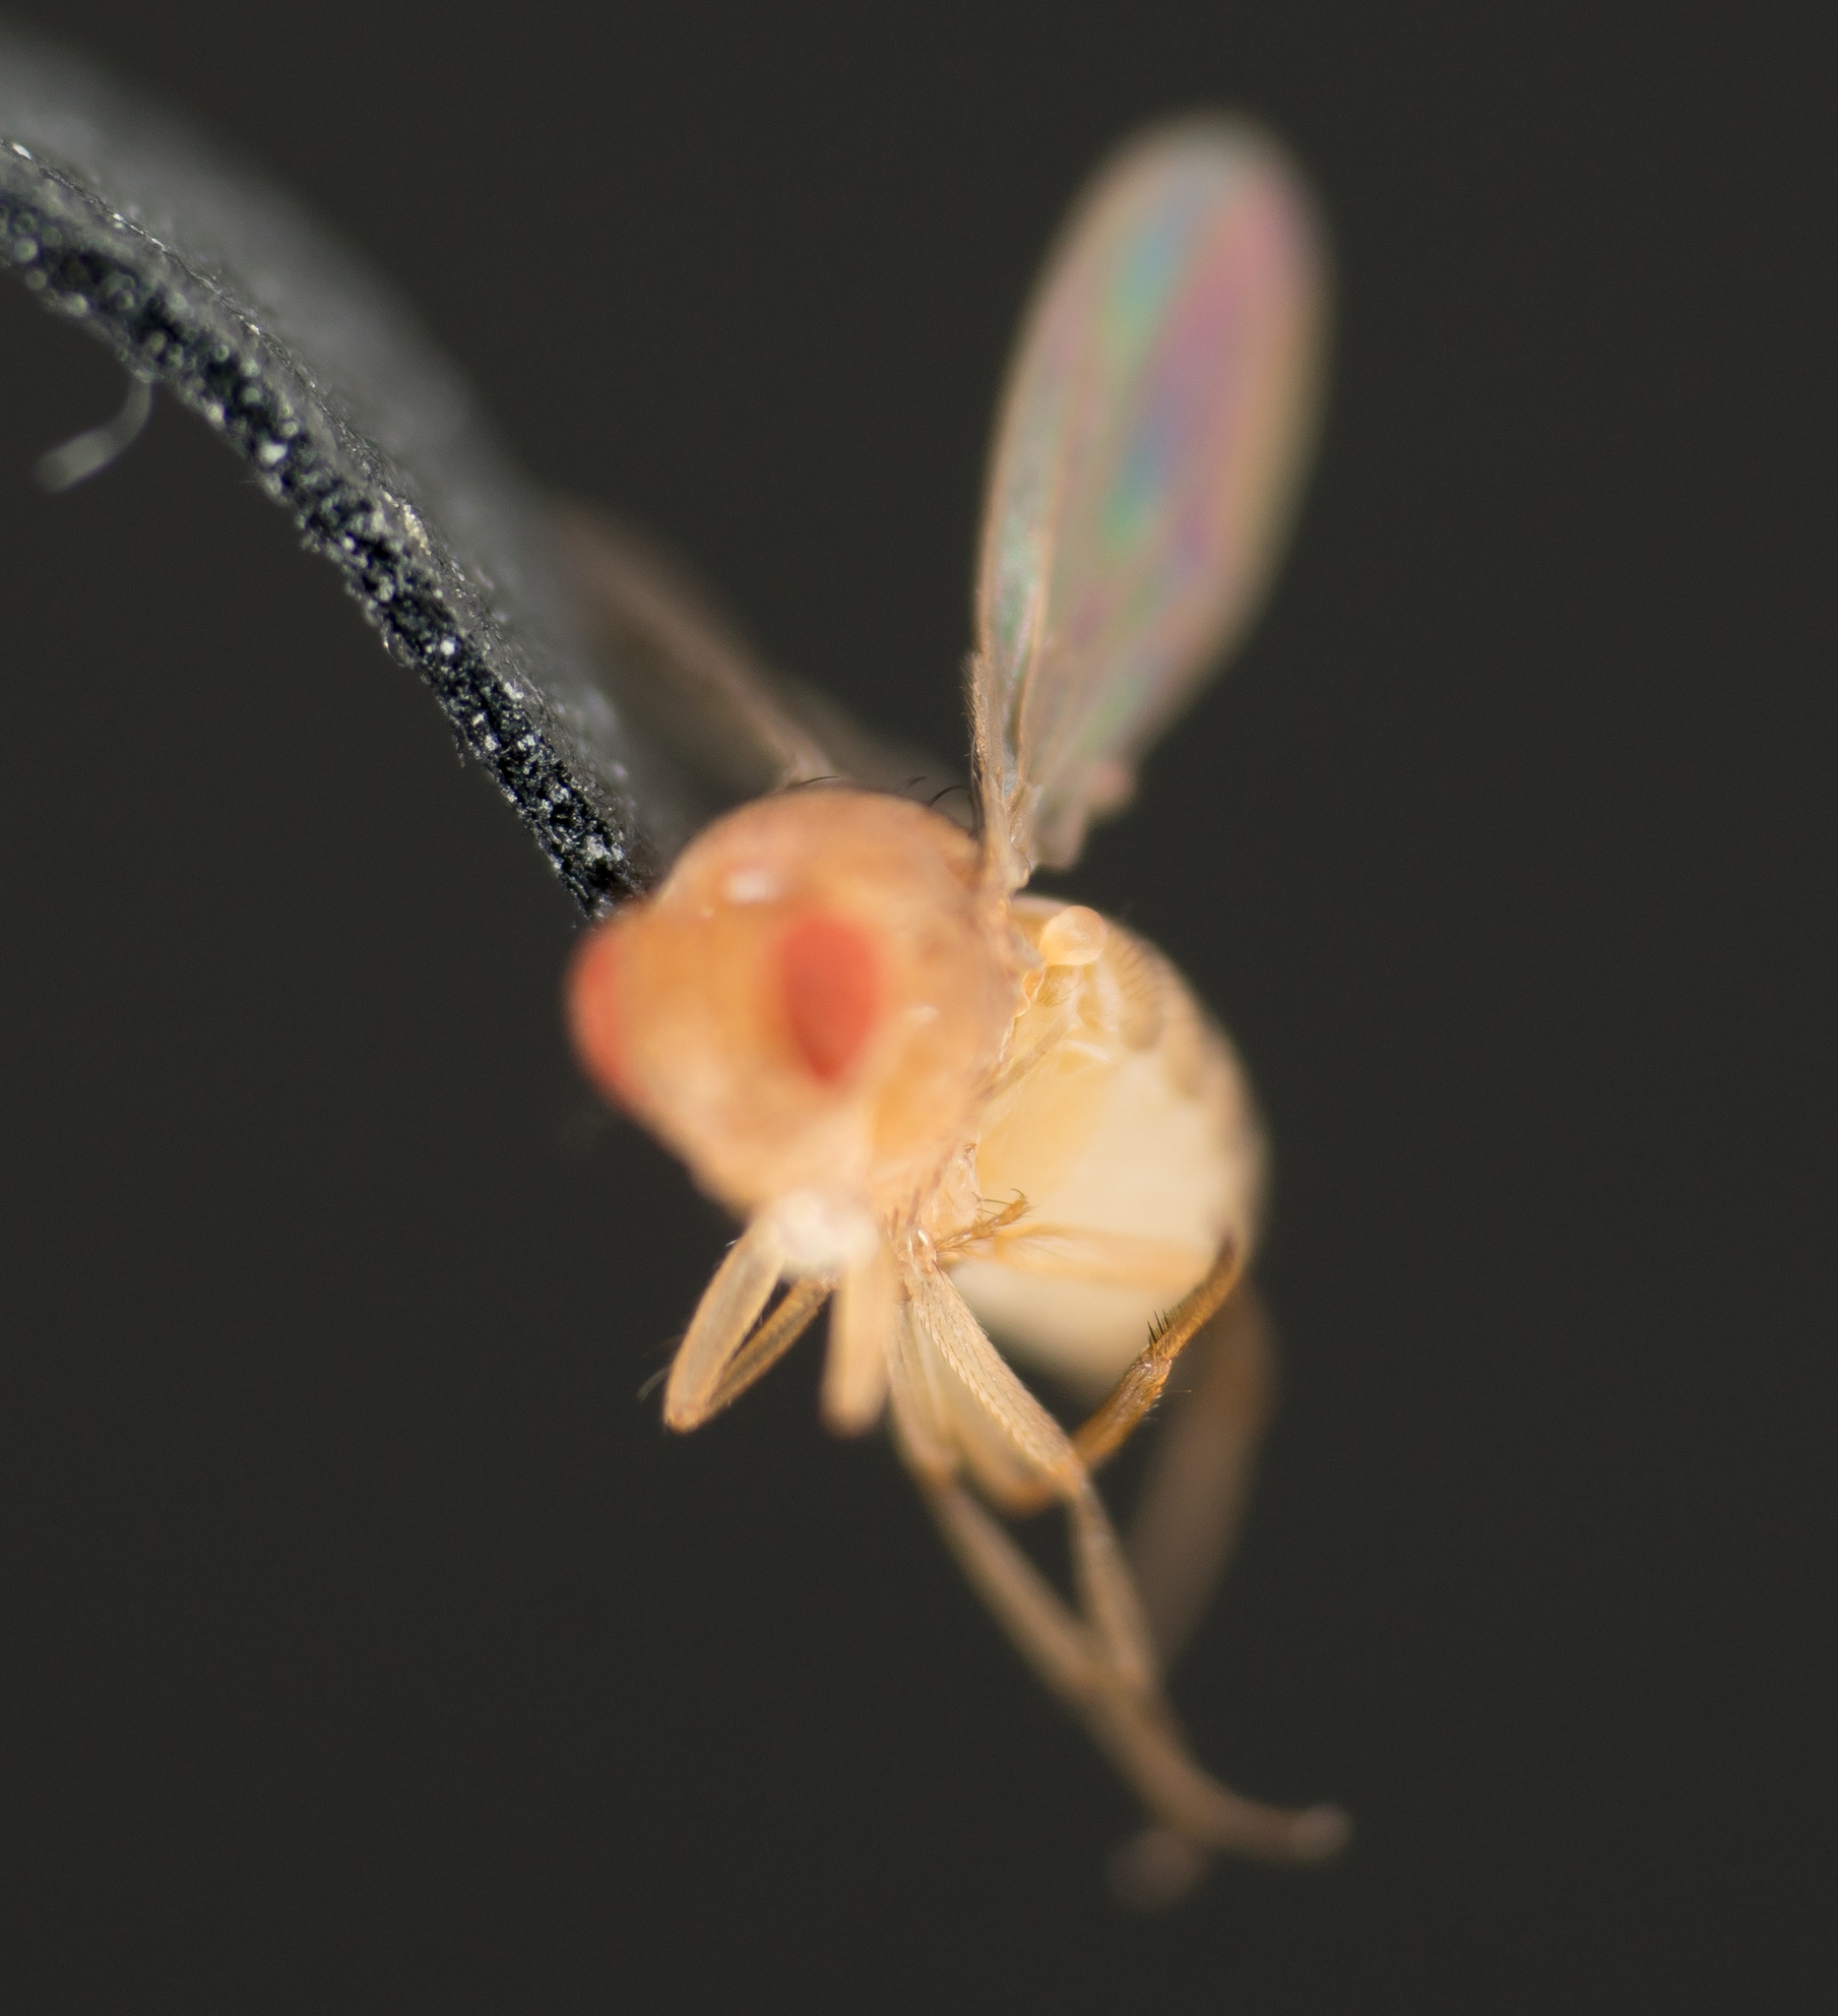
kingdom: Animalia
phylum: Arthropoda
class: Insecta
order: Diptera
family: Drosophilidae
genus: Drosophila
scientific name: Drosophila melanogaster
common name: Pomace fly
